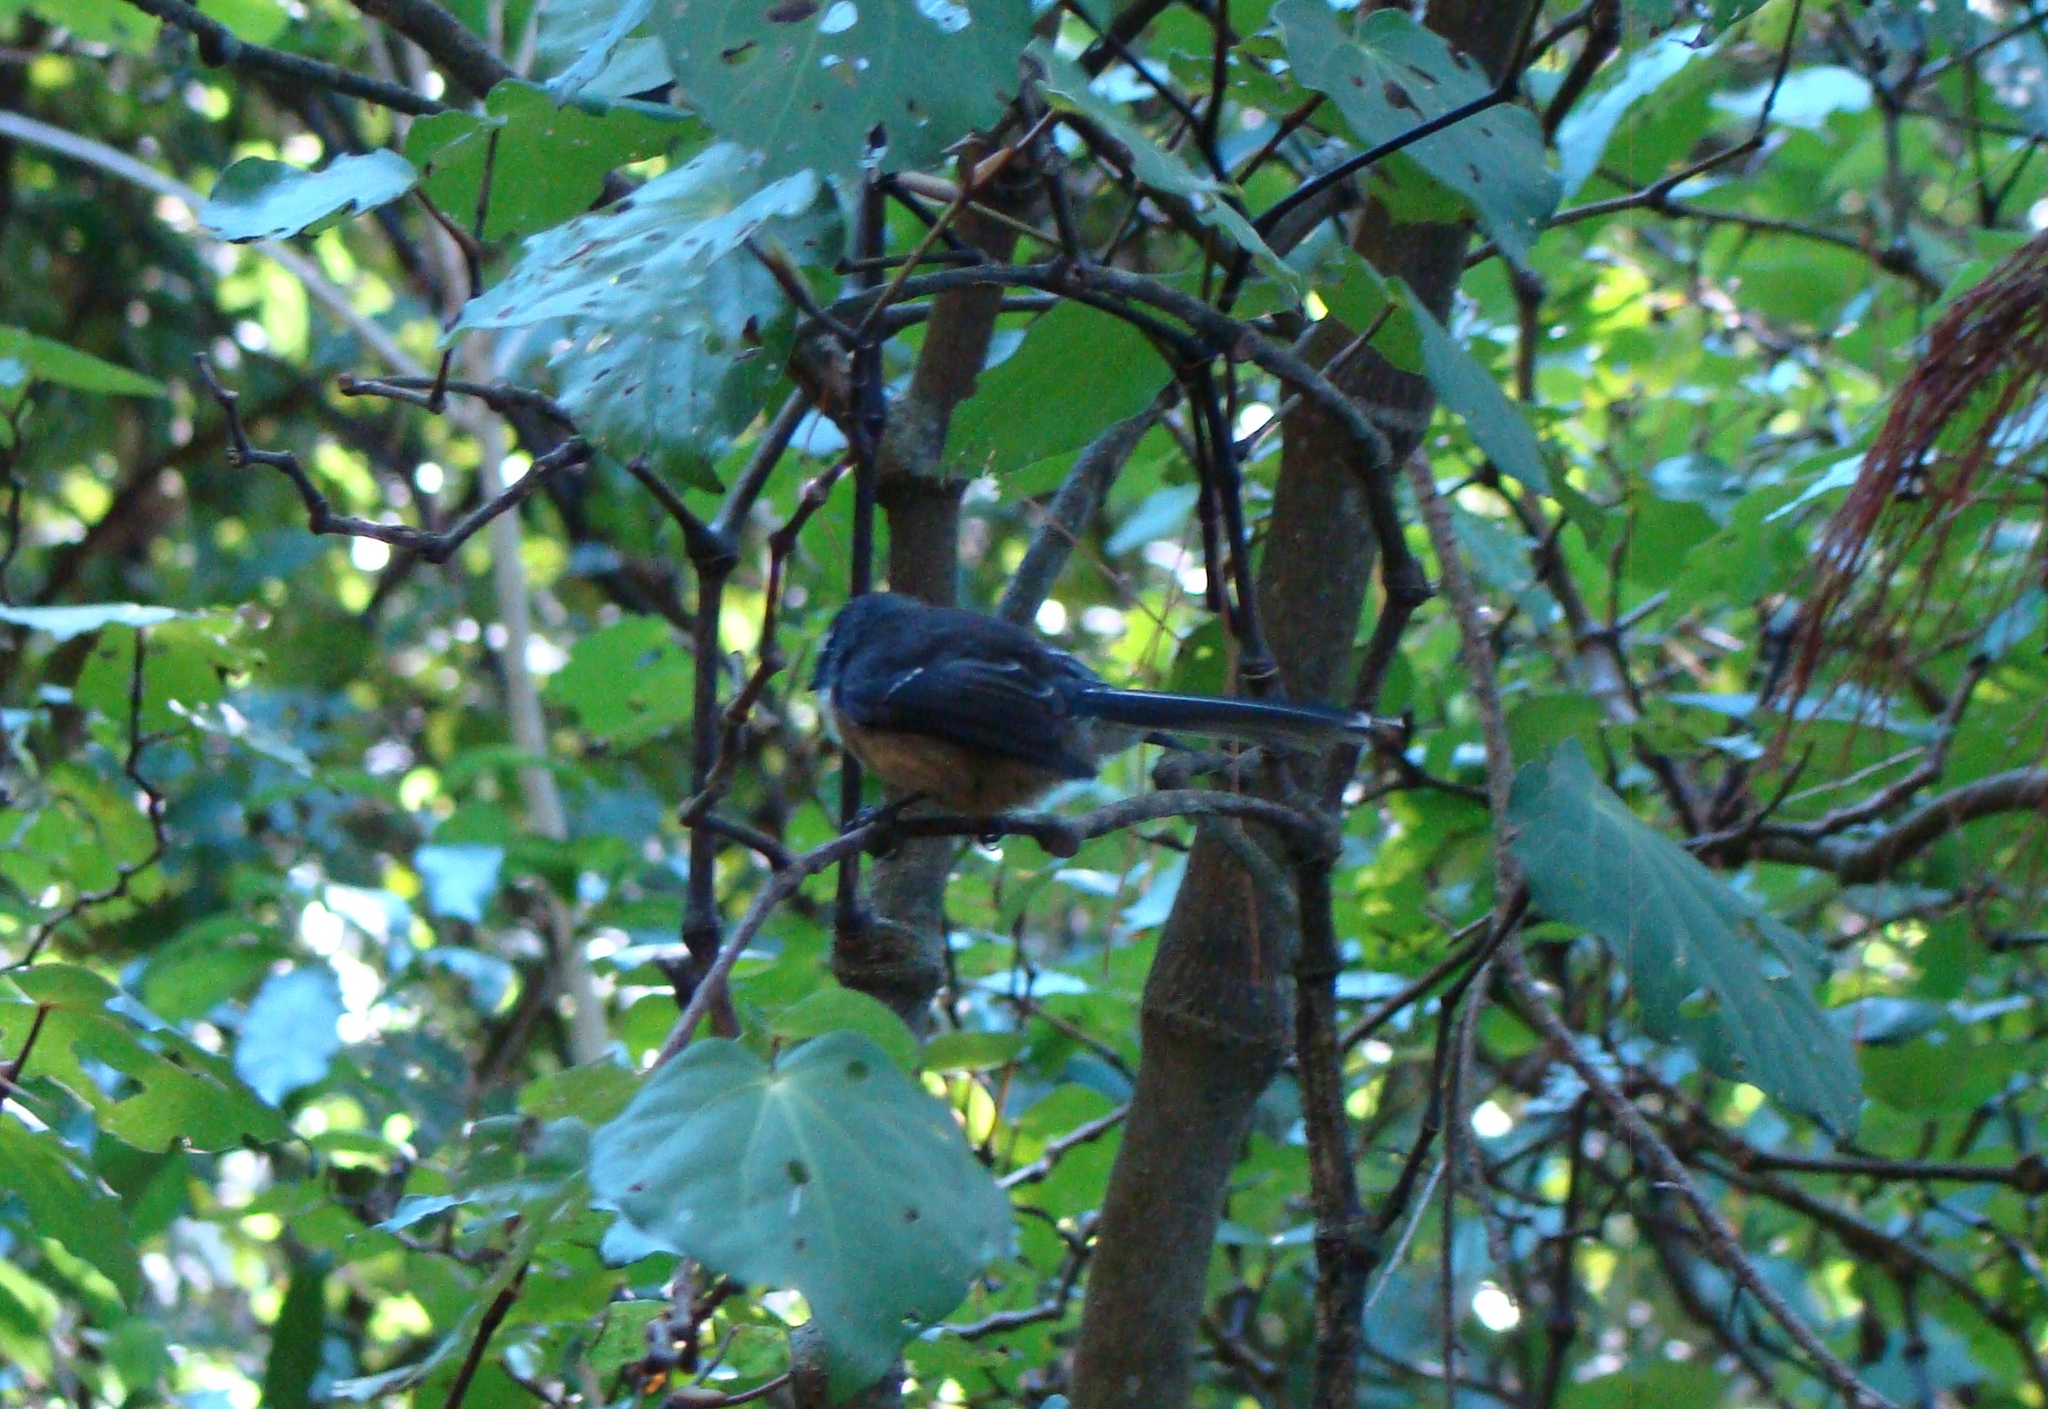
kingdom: Animalia
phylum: Chordata
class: Aves
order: Passeriformes
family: Rhipiduridae
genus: Rhipidura
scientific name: Rhipidura fuliginosa
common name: New zealand fantail
